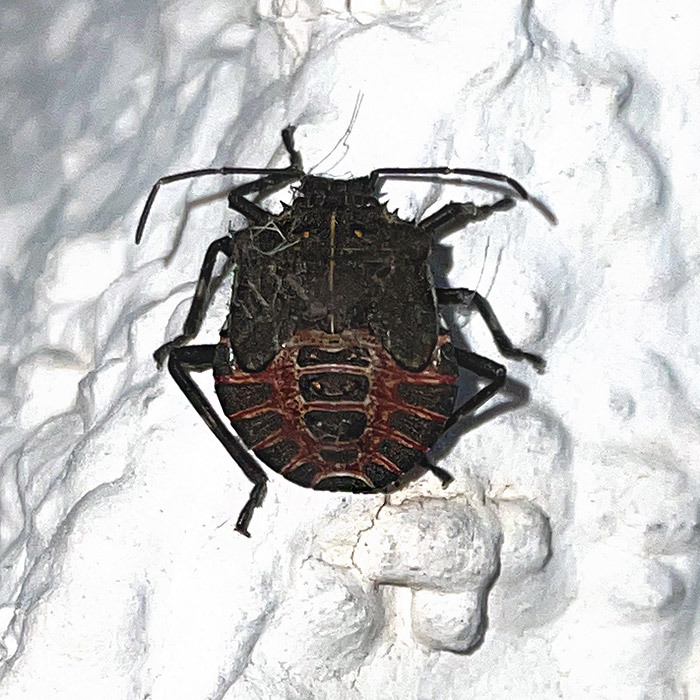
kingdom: Animalia
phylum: Arthropoda
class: Insecta
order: Hemiptera
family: Pentatomidae
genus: Halyomorpha
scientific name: Halyomorpha halys
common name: Brown marmorated stink bug
